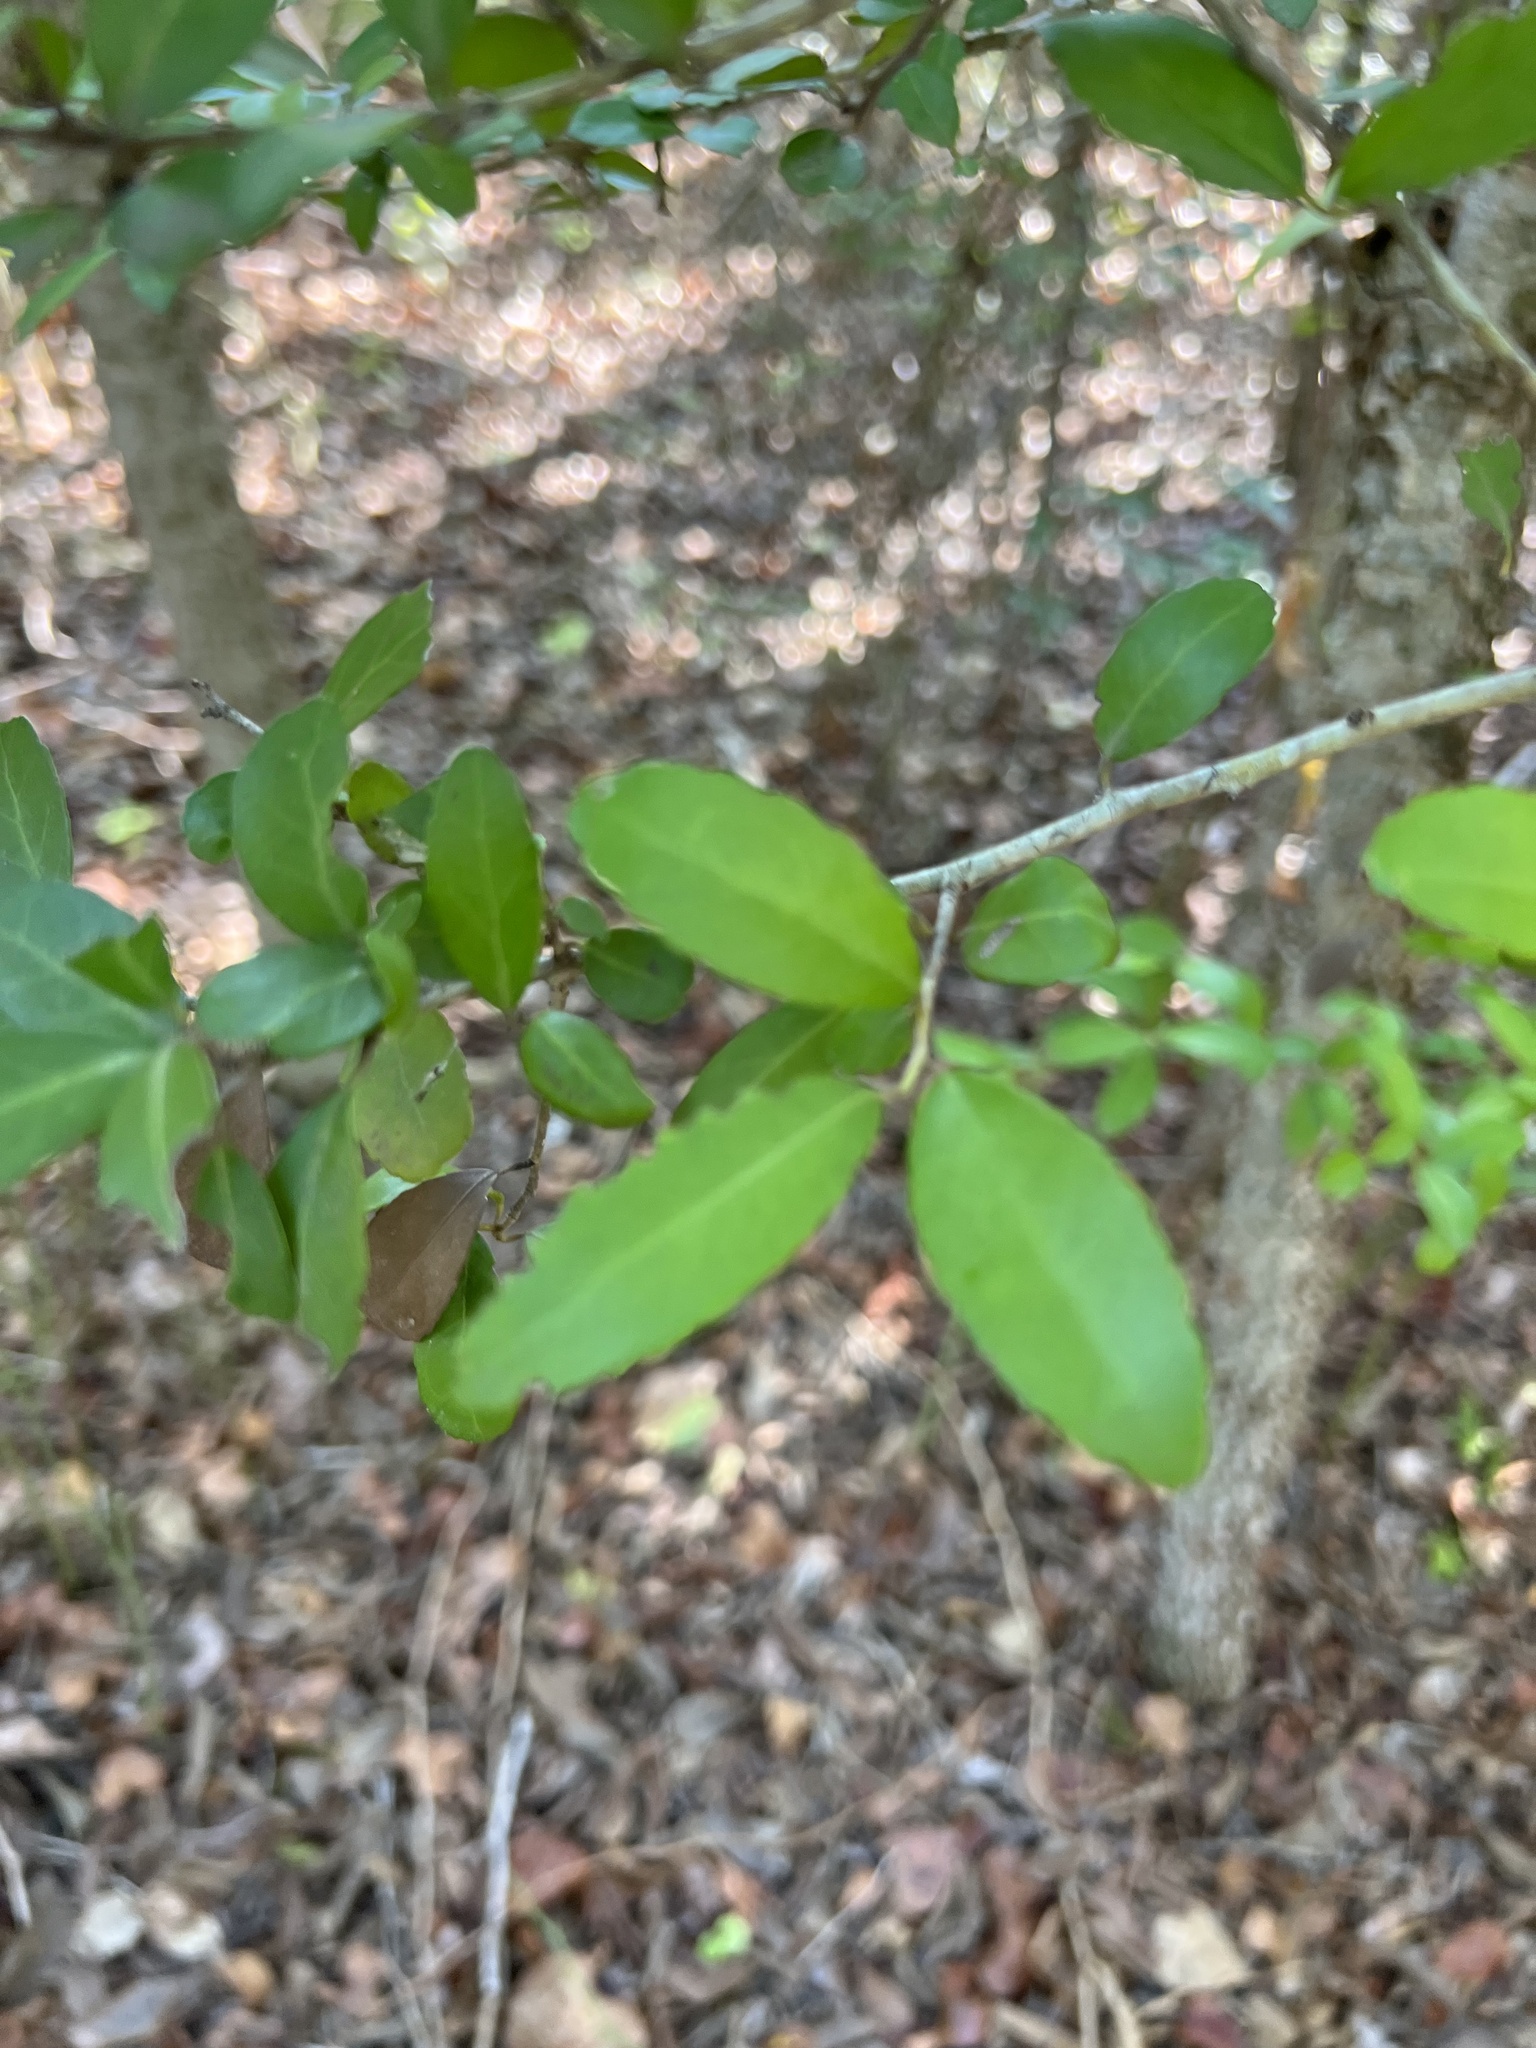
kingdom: Plantae
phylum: Tracheophyta
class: Magnoliopsida
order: Aquifoliales
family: Aquifoliaceae
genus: Ilex
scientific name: Ilex vomitoria
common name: Yaupon holly
